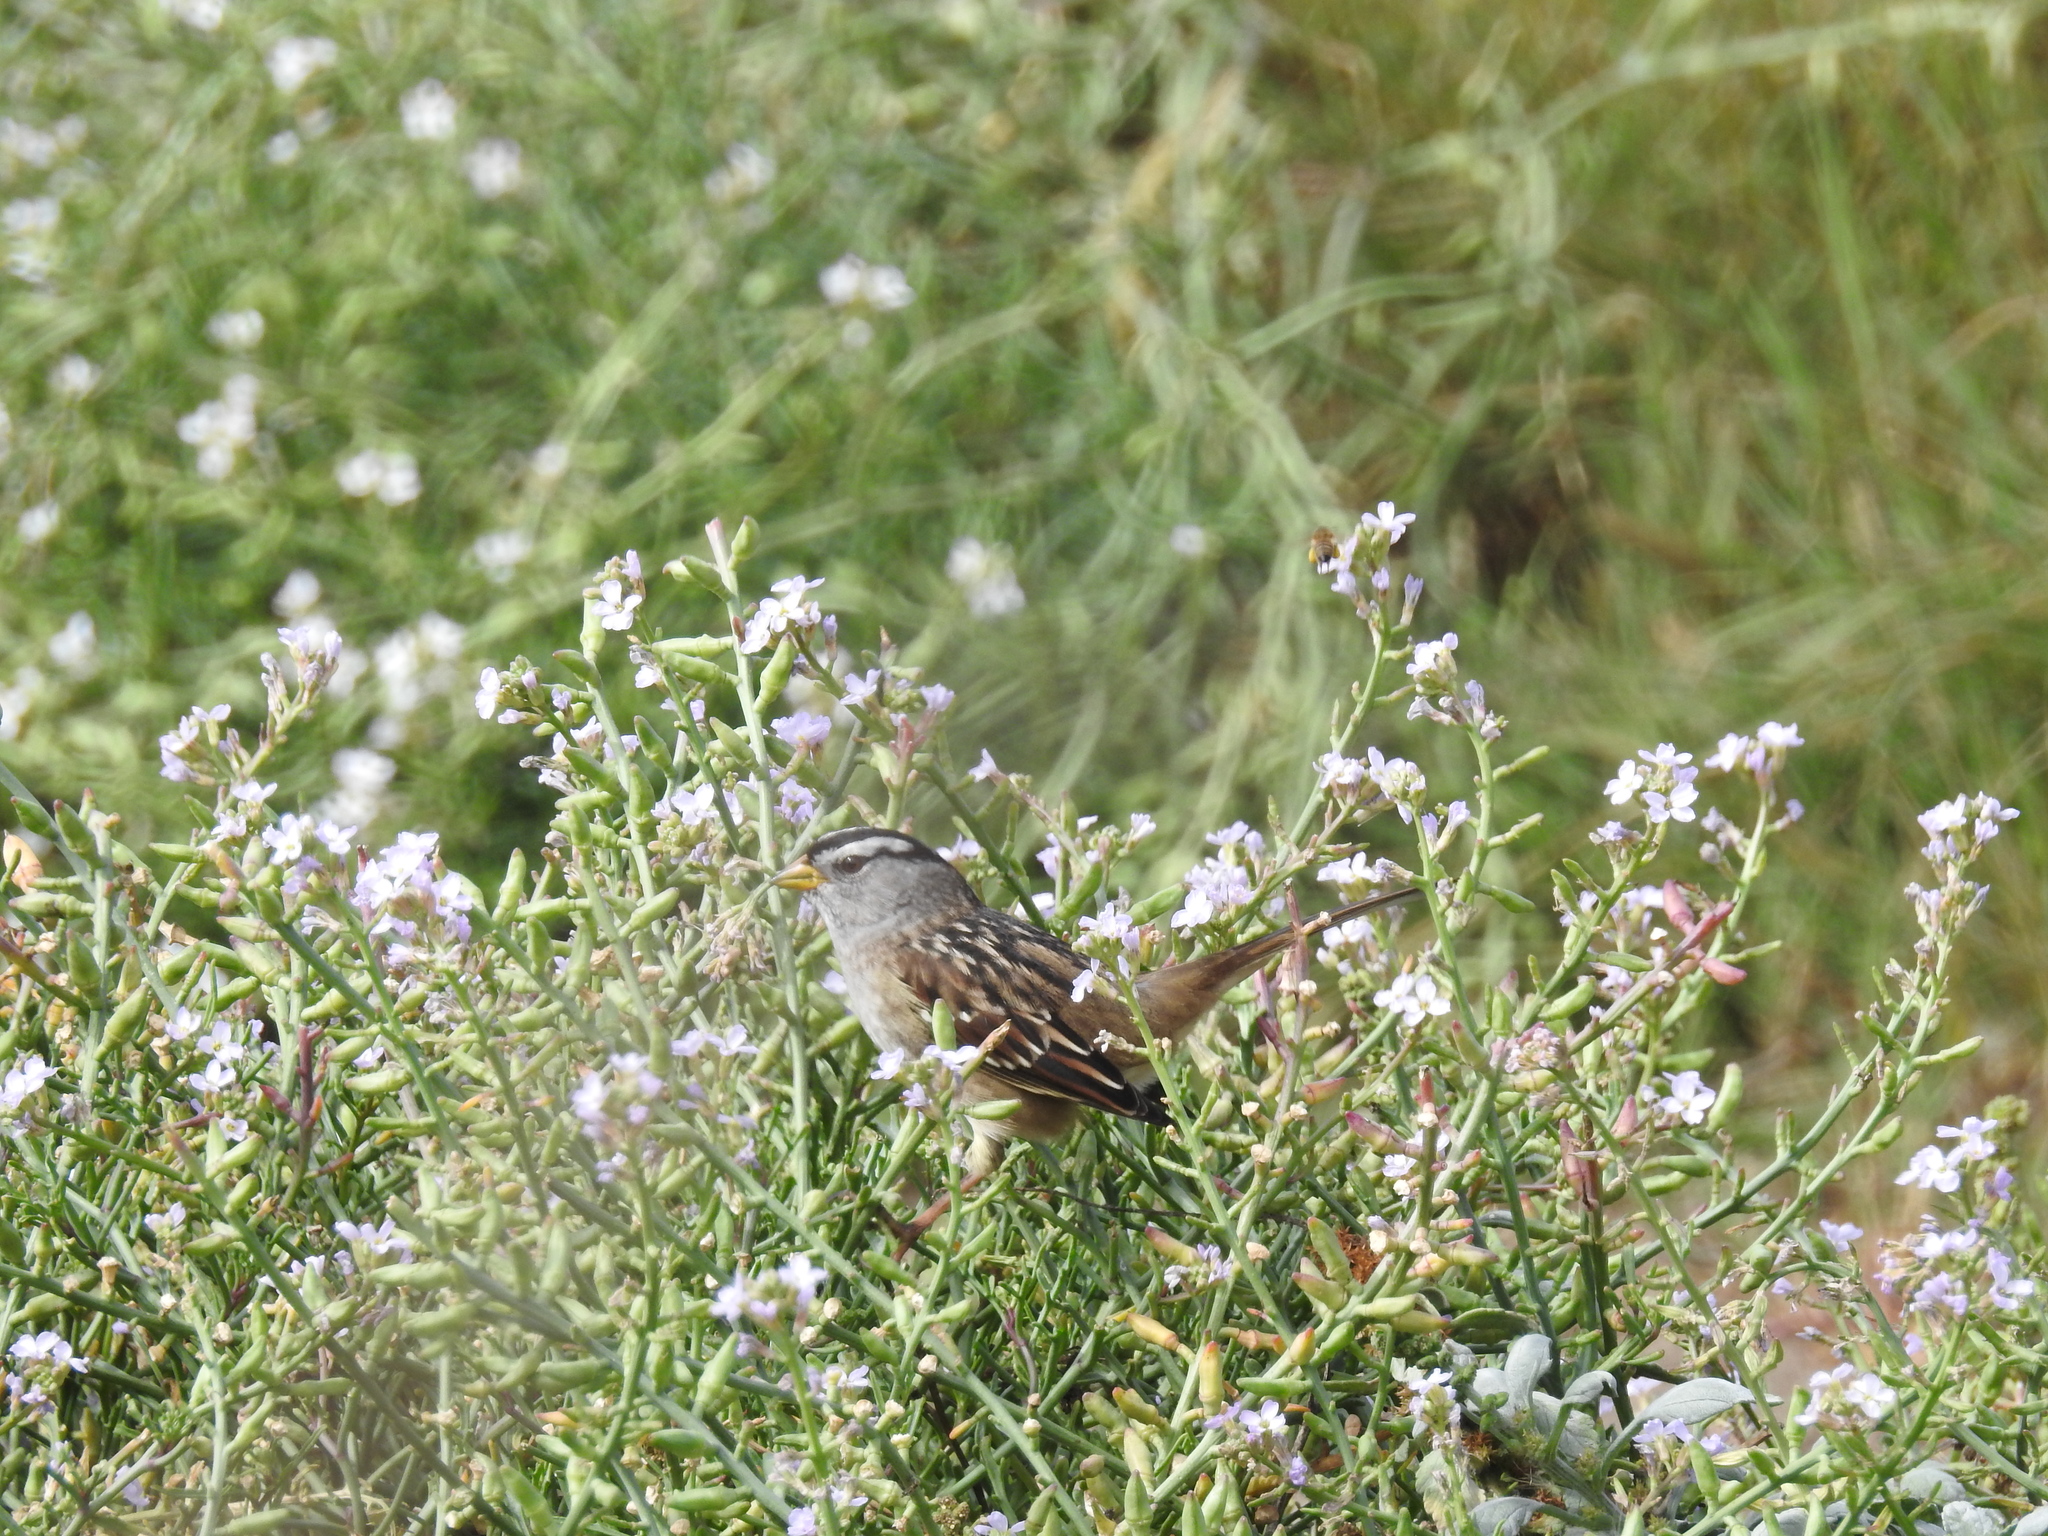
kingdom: Animalia
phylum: Chordata
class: Aves
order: Passeriformes
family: Passerellidae
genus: Zonotrichia
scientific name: Zonotrichia leucophrys
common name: White-crowned sparrow
